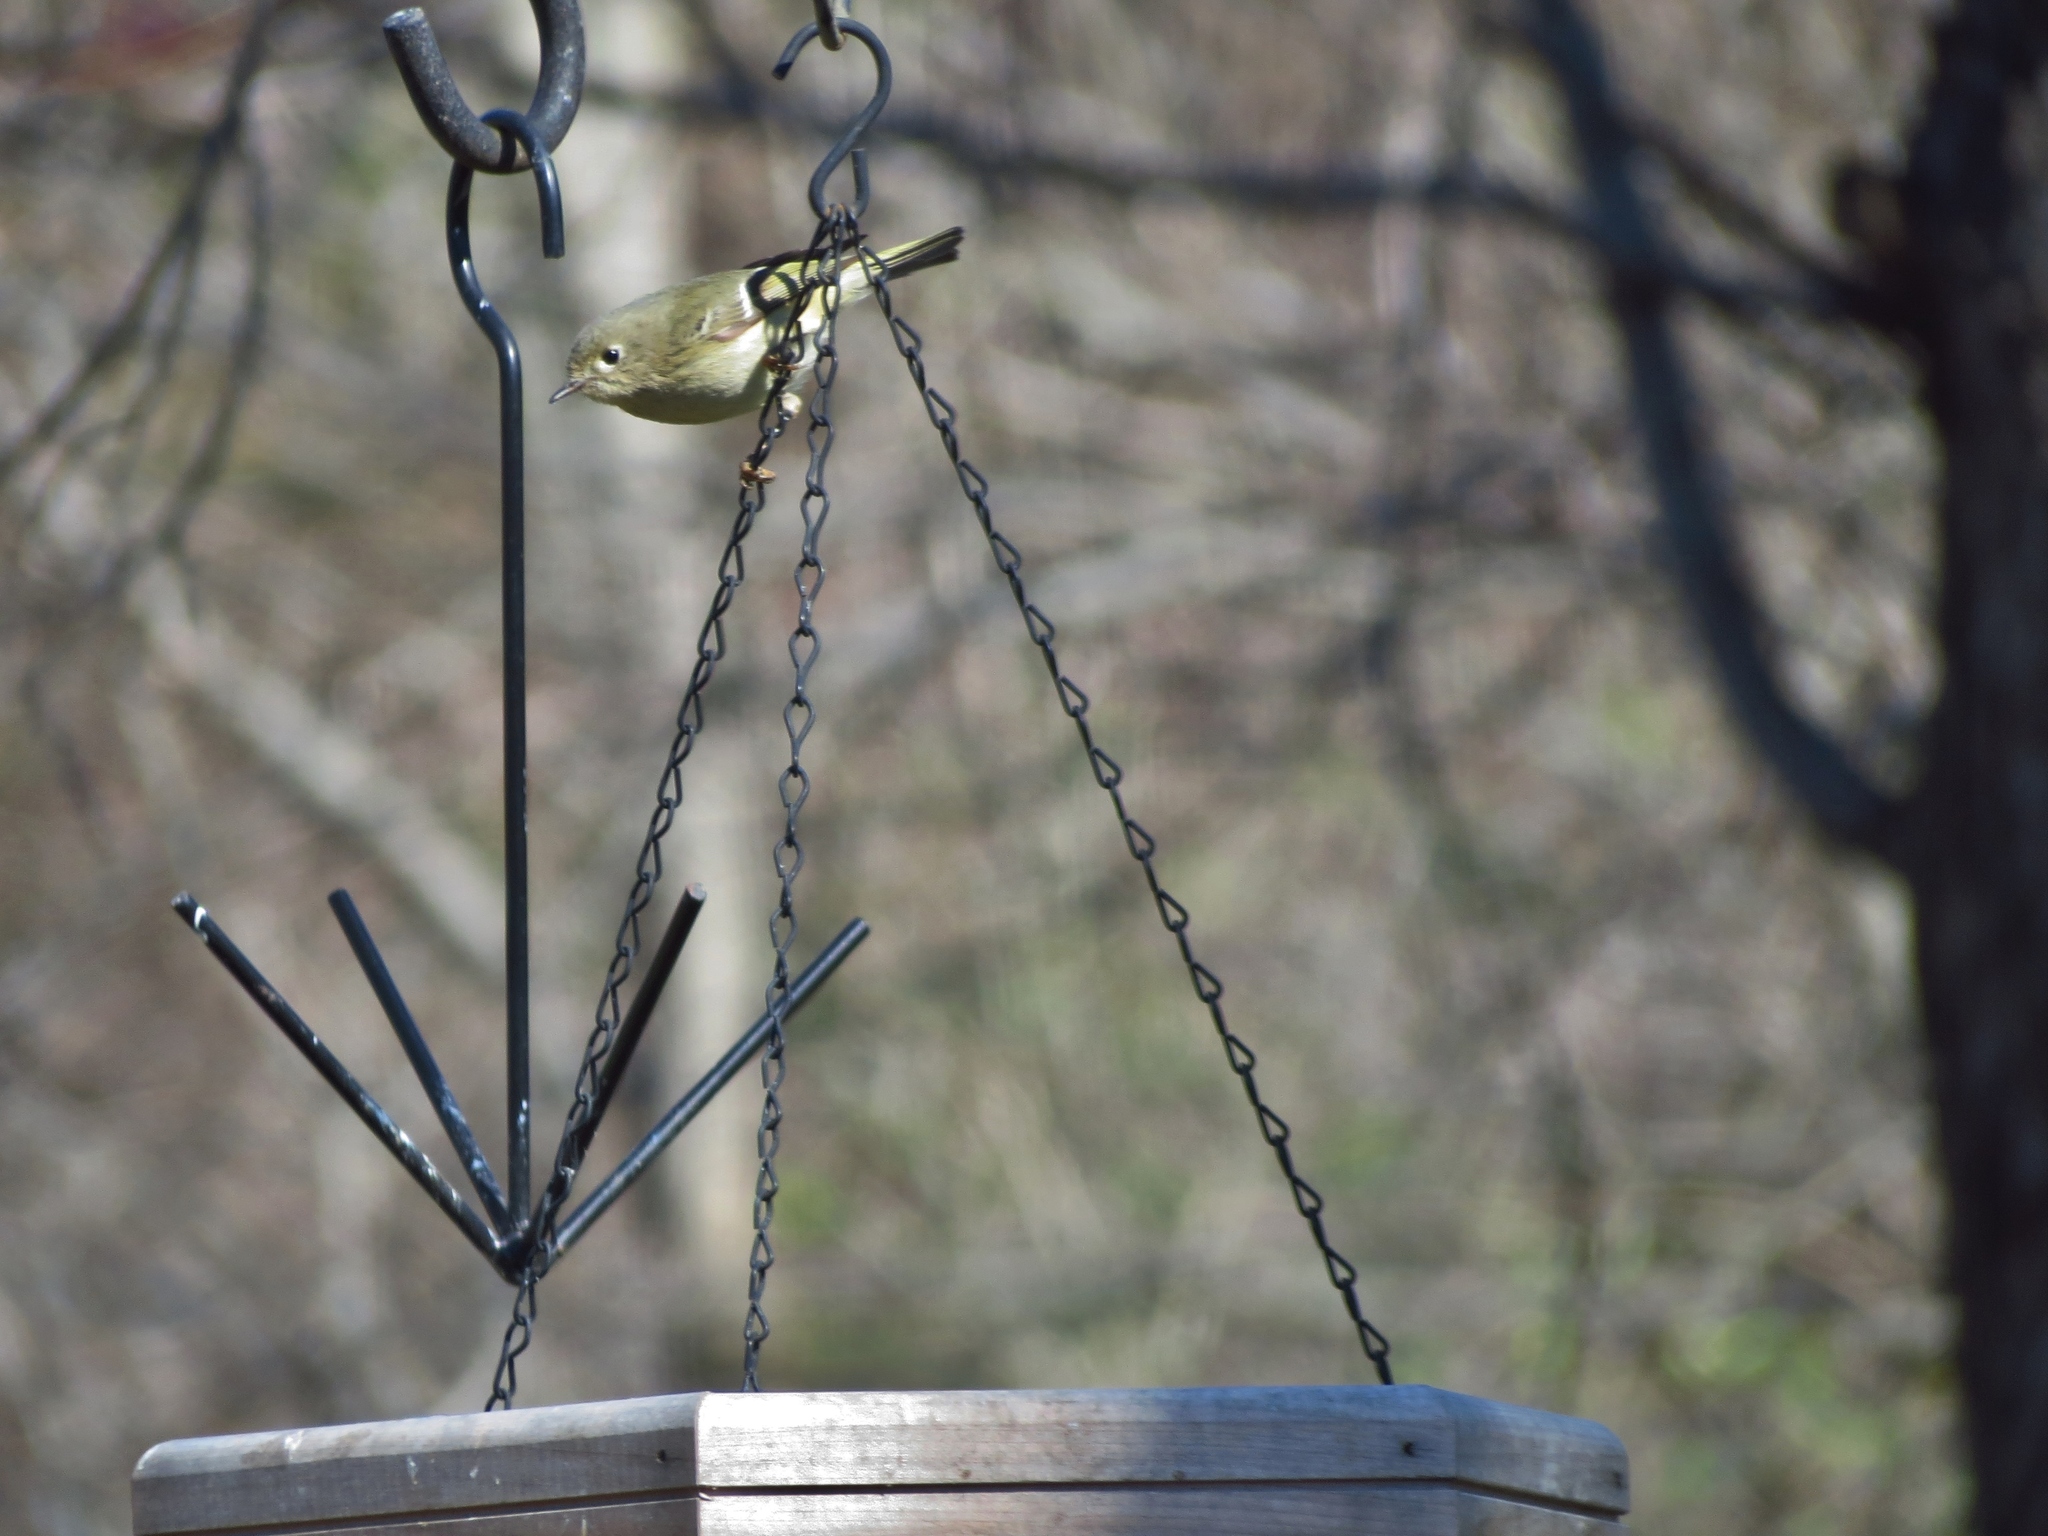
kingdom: Animalia
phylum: Chordata
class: Aves
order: Passeriformes
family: Regulidae
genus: Regulus
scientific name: Regulus calendula
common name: Ruby-crowned kinglet
